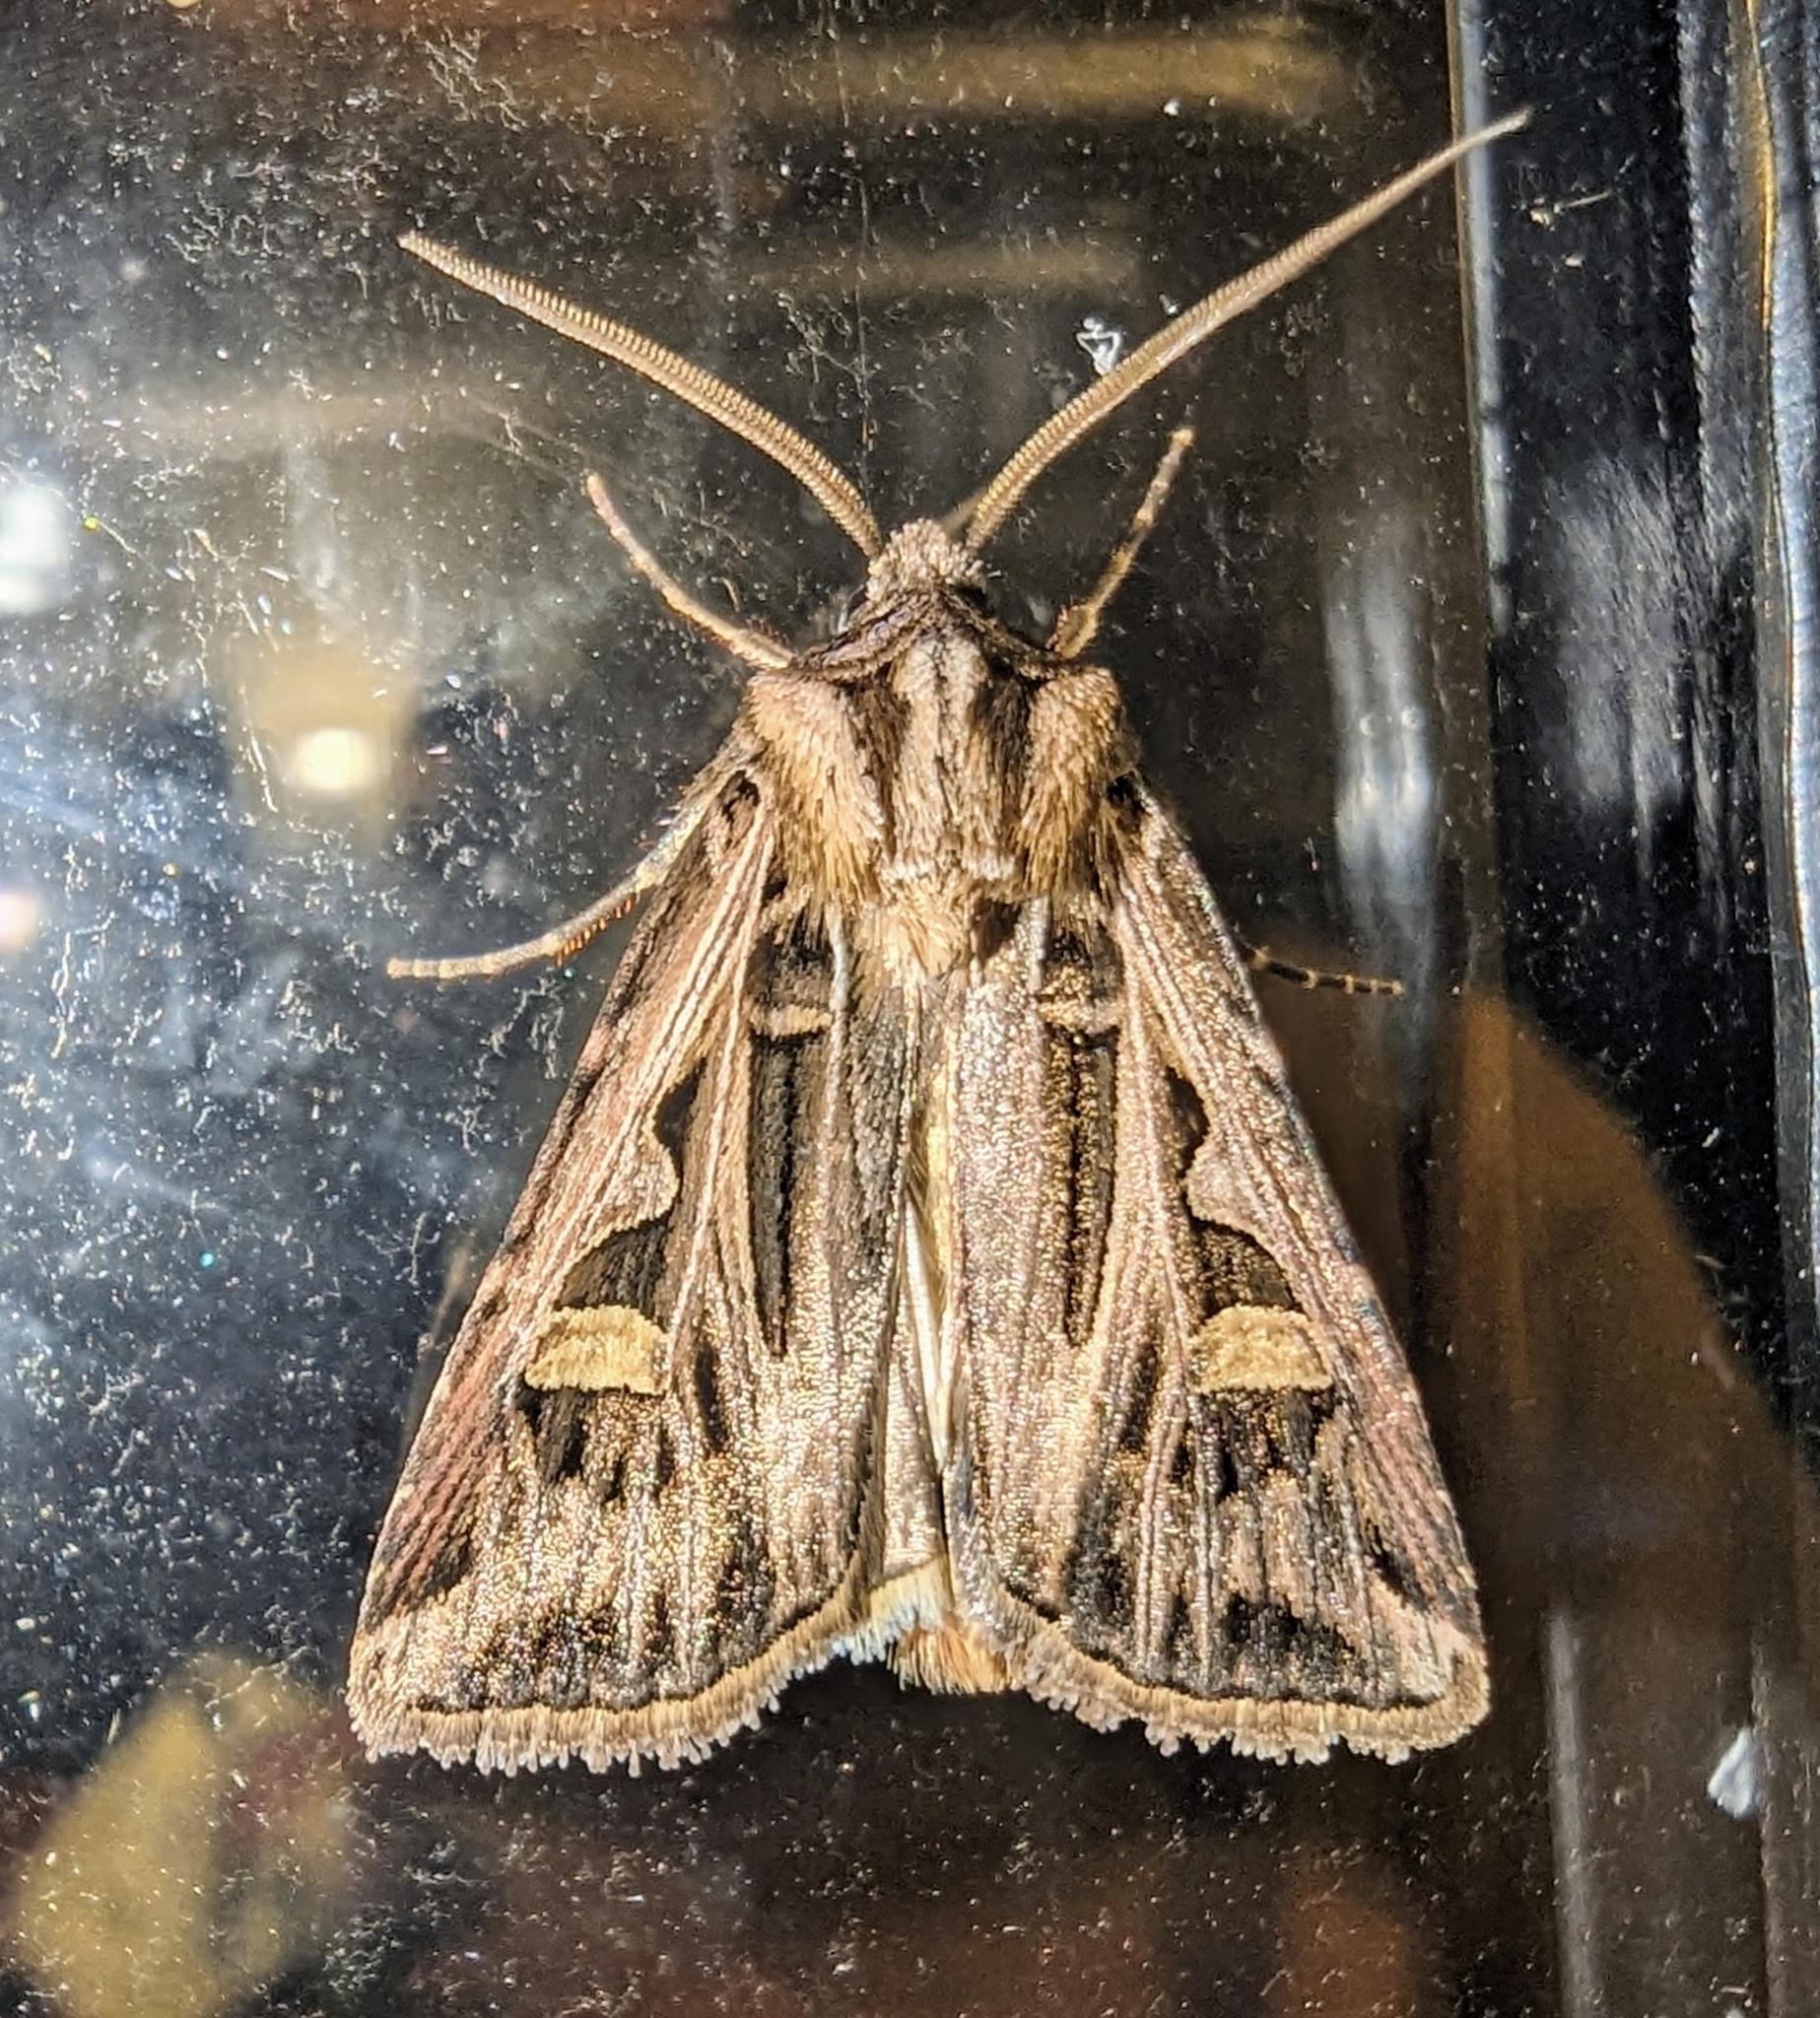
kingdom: Animalia
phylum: Arthropoda
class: Insecta
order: Lepidoptera
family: Noctuidae
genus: Feltia
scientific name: Feltia jaculifera
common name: Dingy cutworm moth
